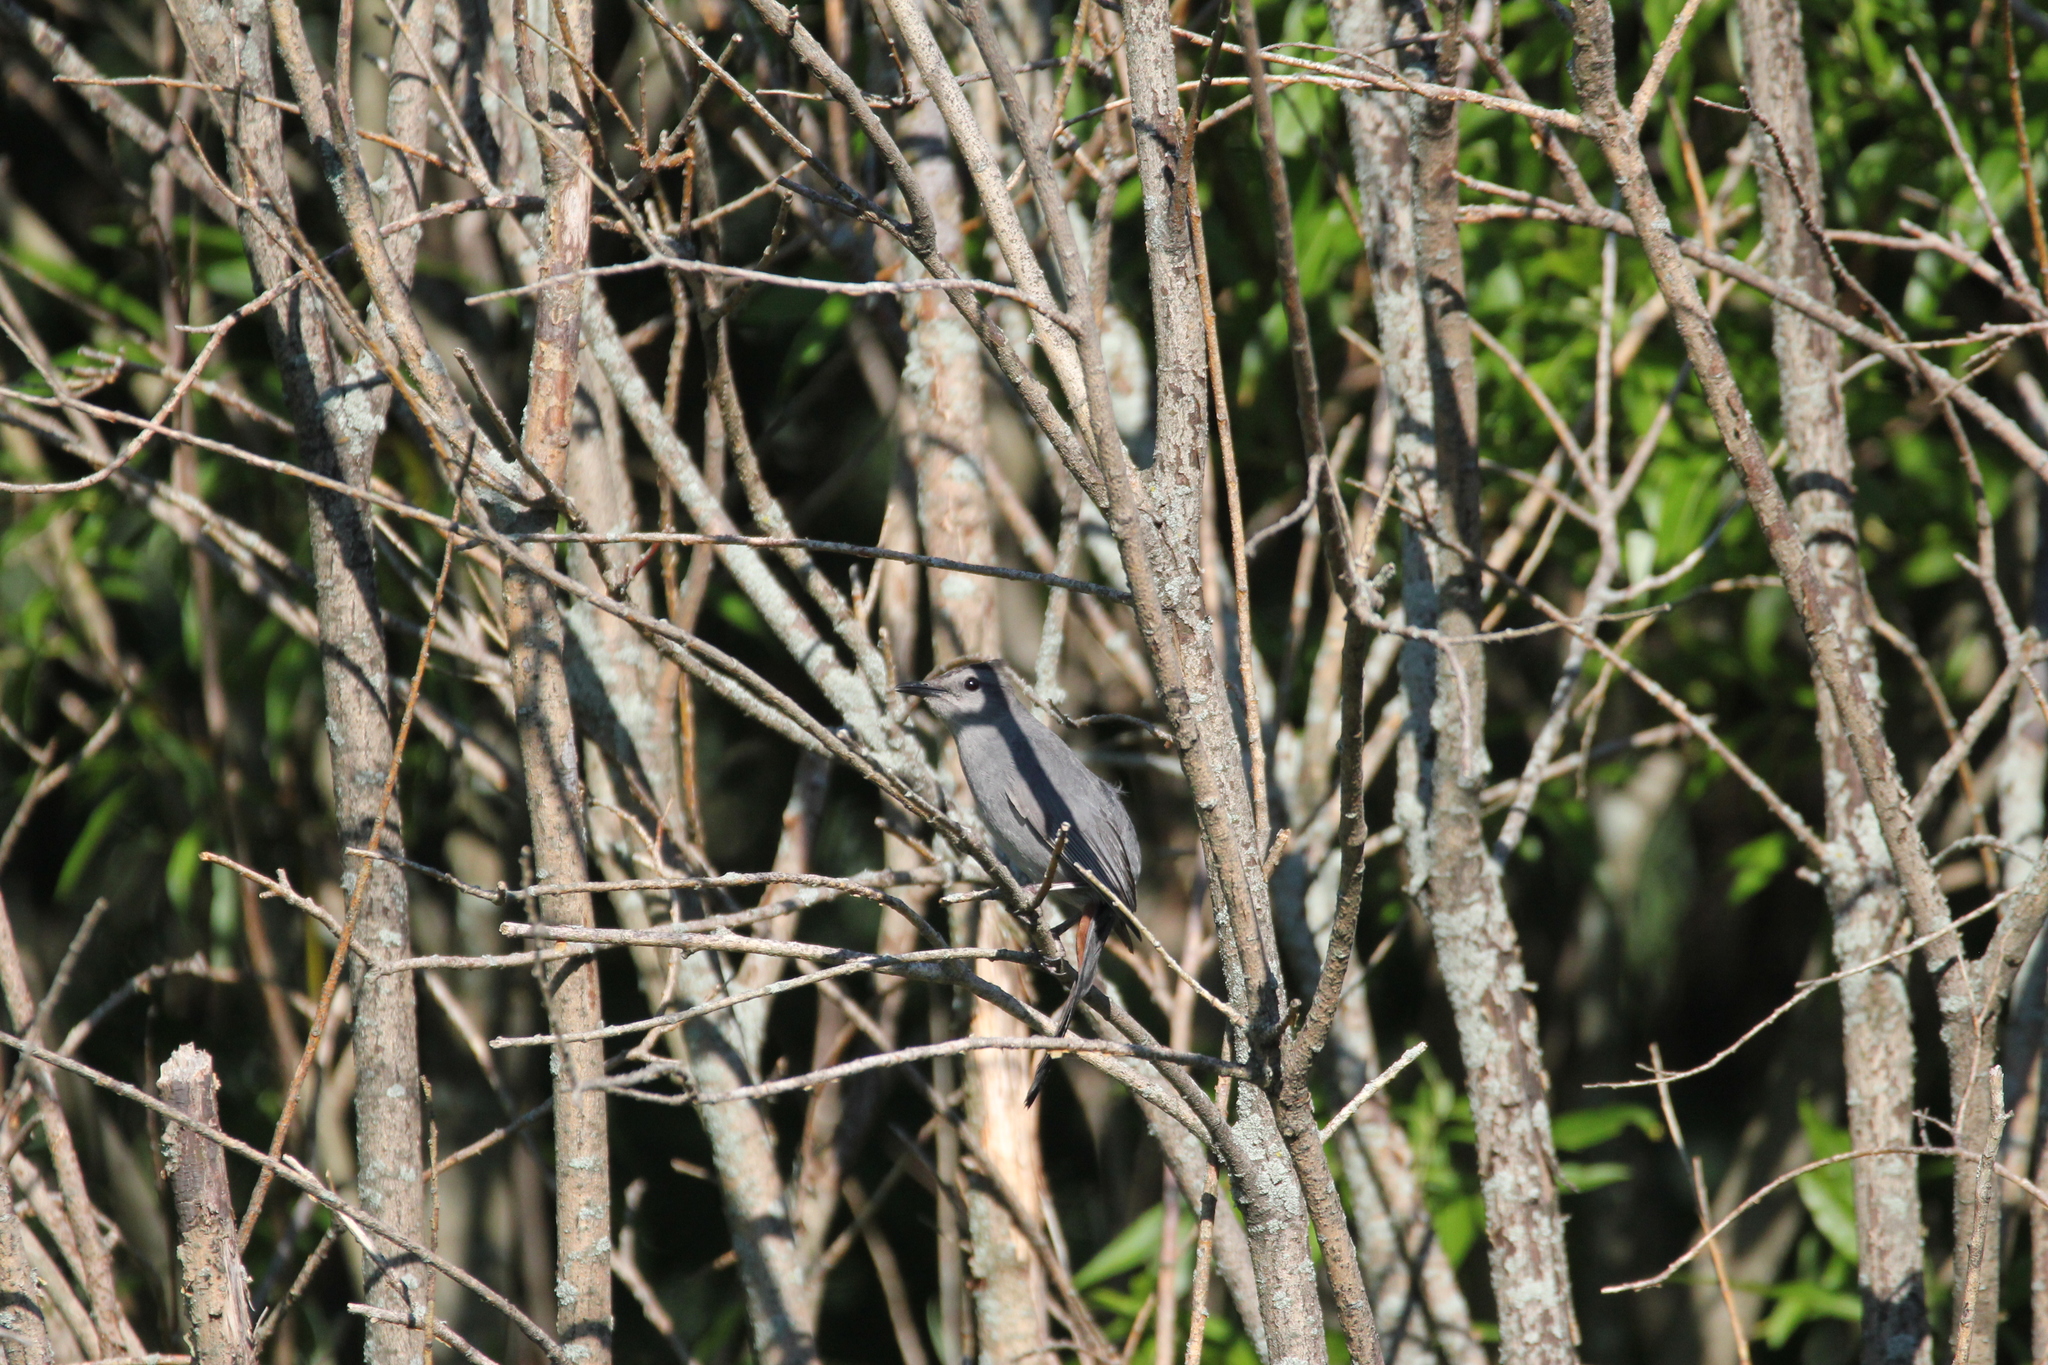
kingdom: Animalia
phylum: Chordata
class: Aves
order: Passeriformes
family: Mimidae
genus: Dumetella
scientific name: Dumetella carolinensis
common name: Gray catbird
